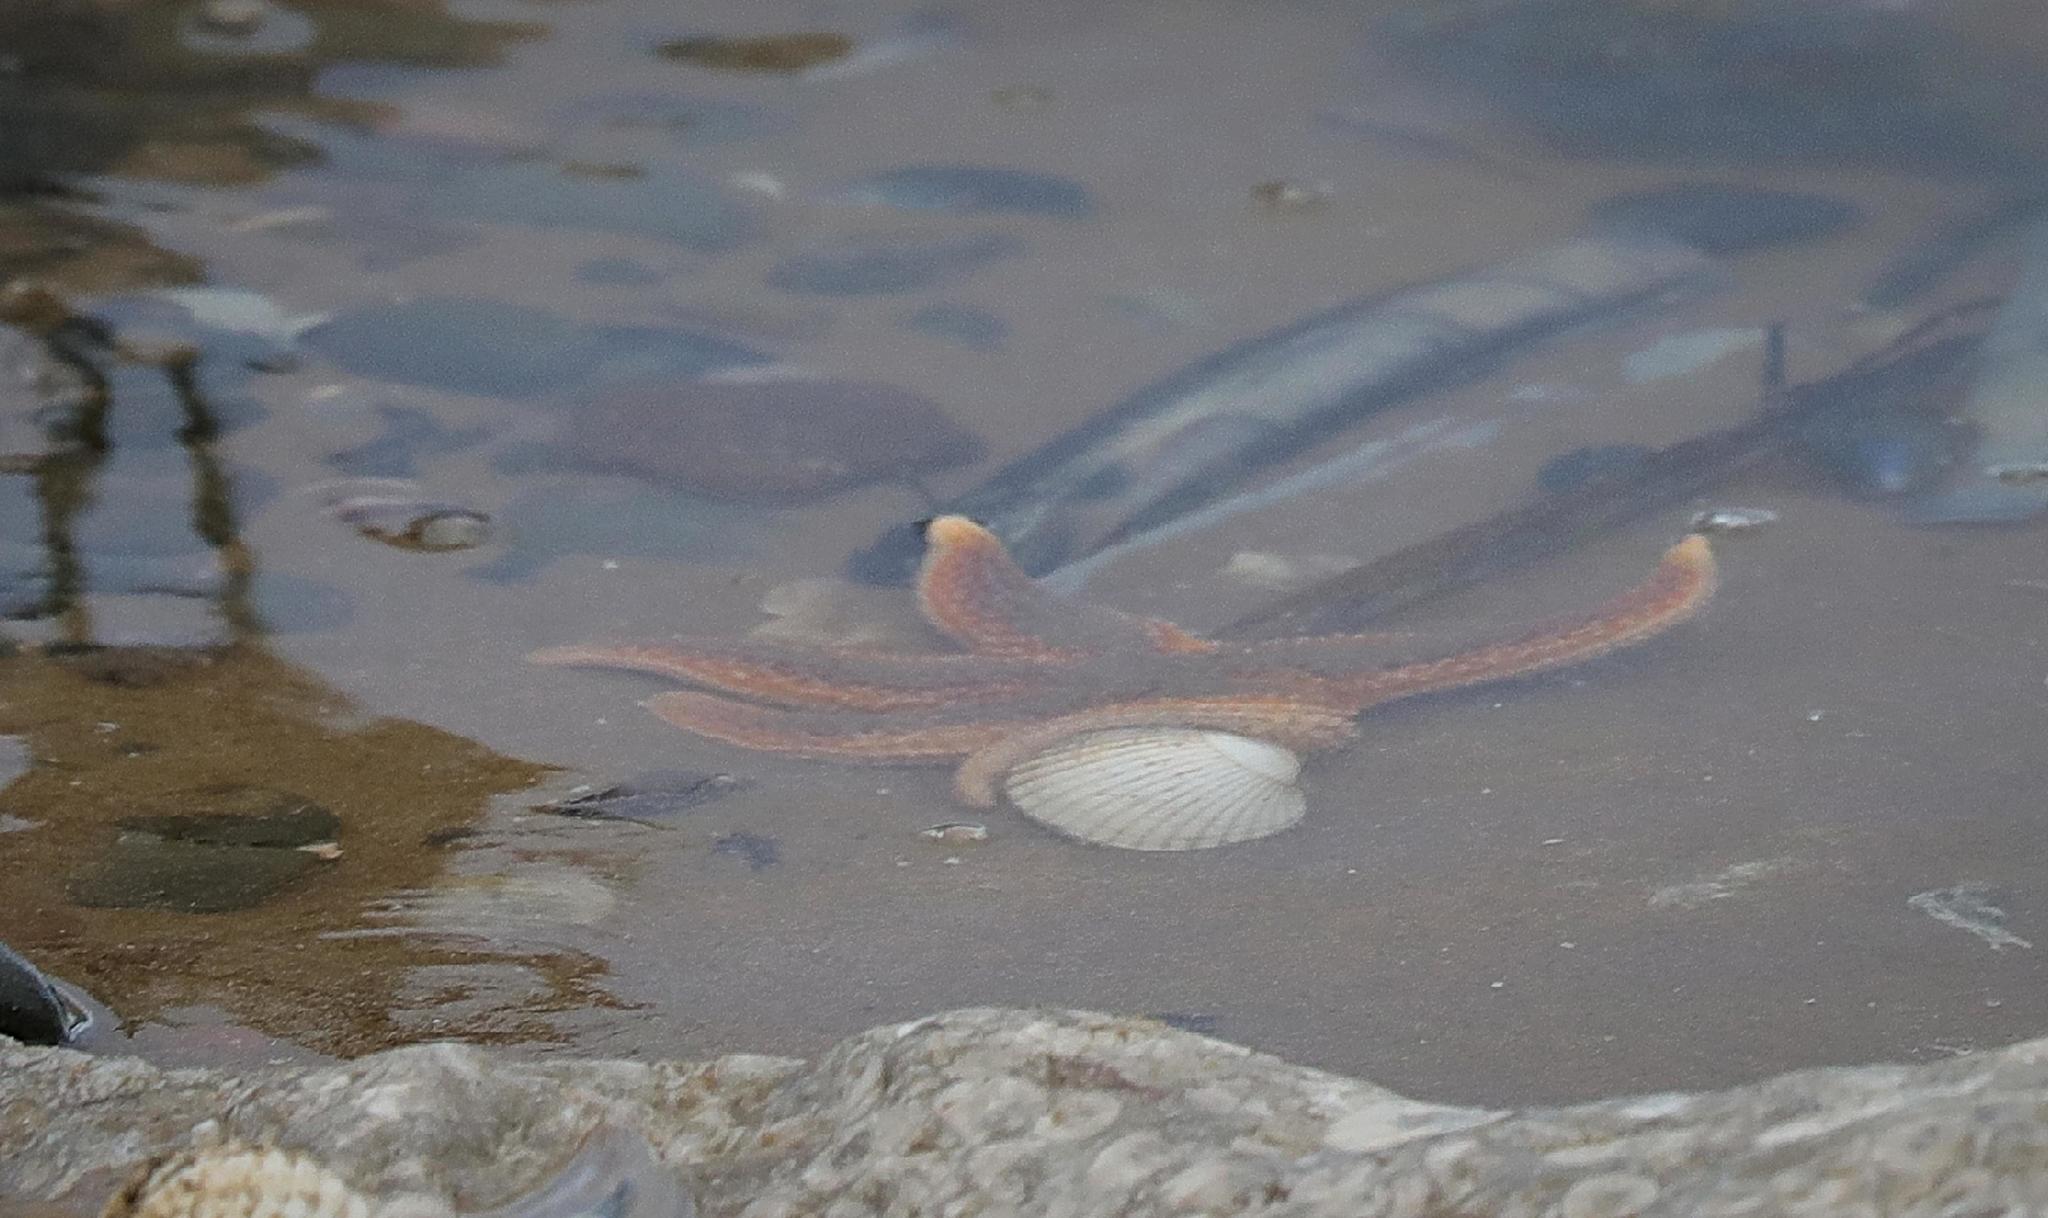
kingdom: Animalia
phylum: Echinodermata
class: Asteroidea
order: Forcipulatida
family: Asteriidae
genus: Asterias
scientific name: Asterias rubens
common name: Common starfish
